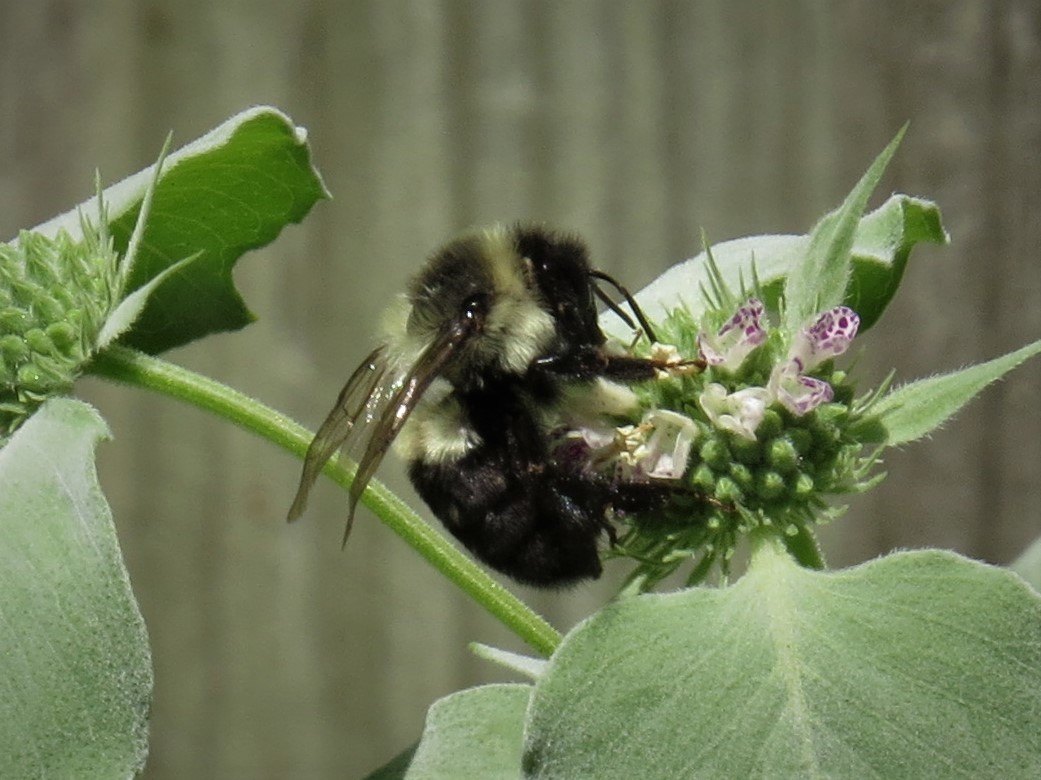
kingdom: Animalia
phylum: Arthropoda
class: Insecta
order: Hymenoptera
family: Apidae
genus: Bombus
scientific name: Bombus impatiens
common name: Common eastern bumble bee
